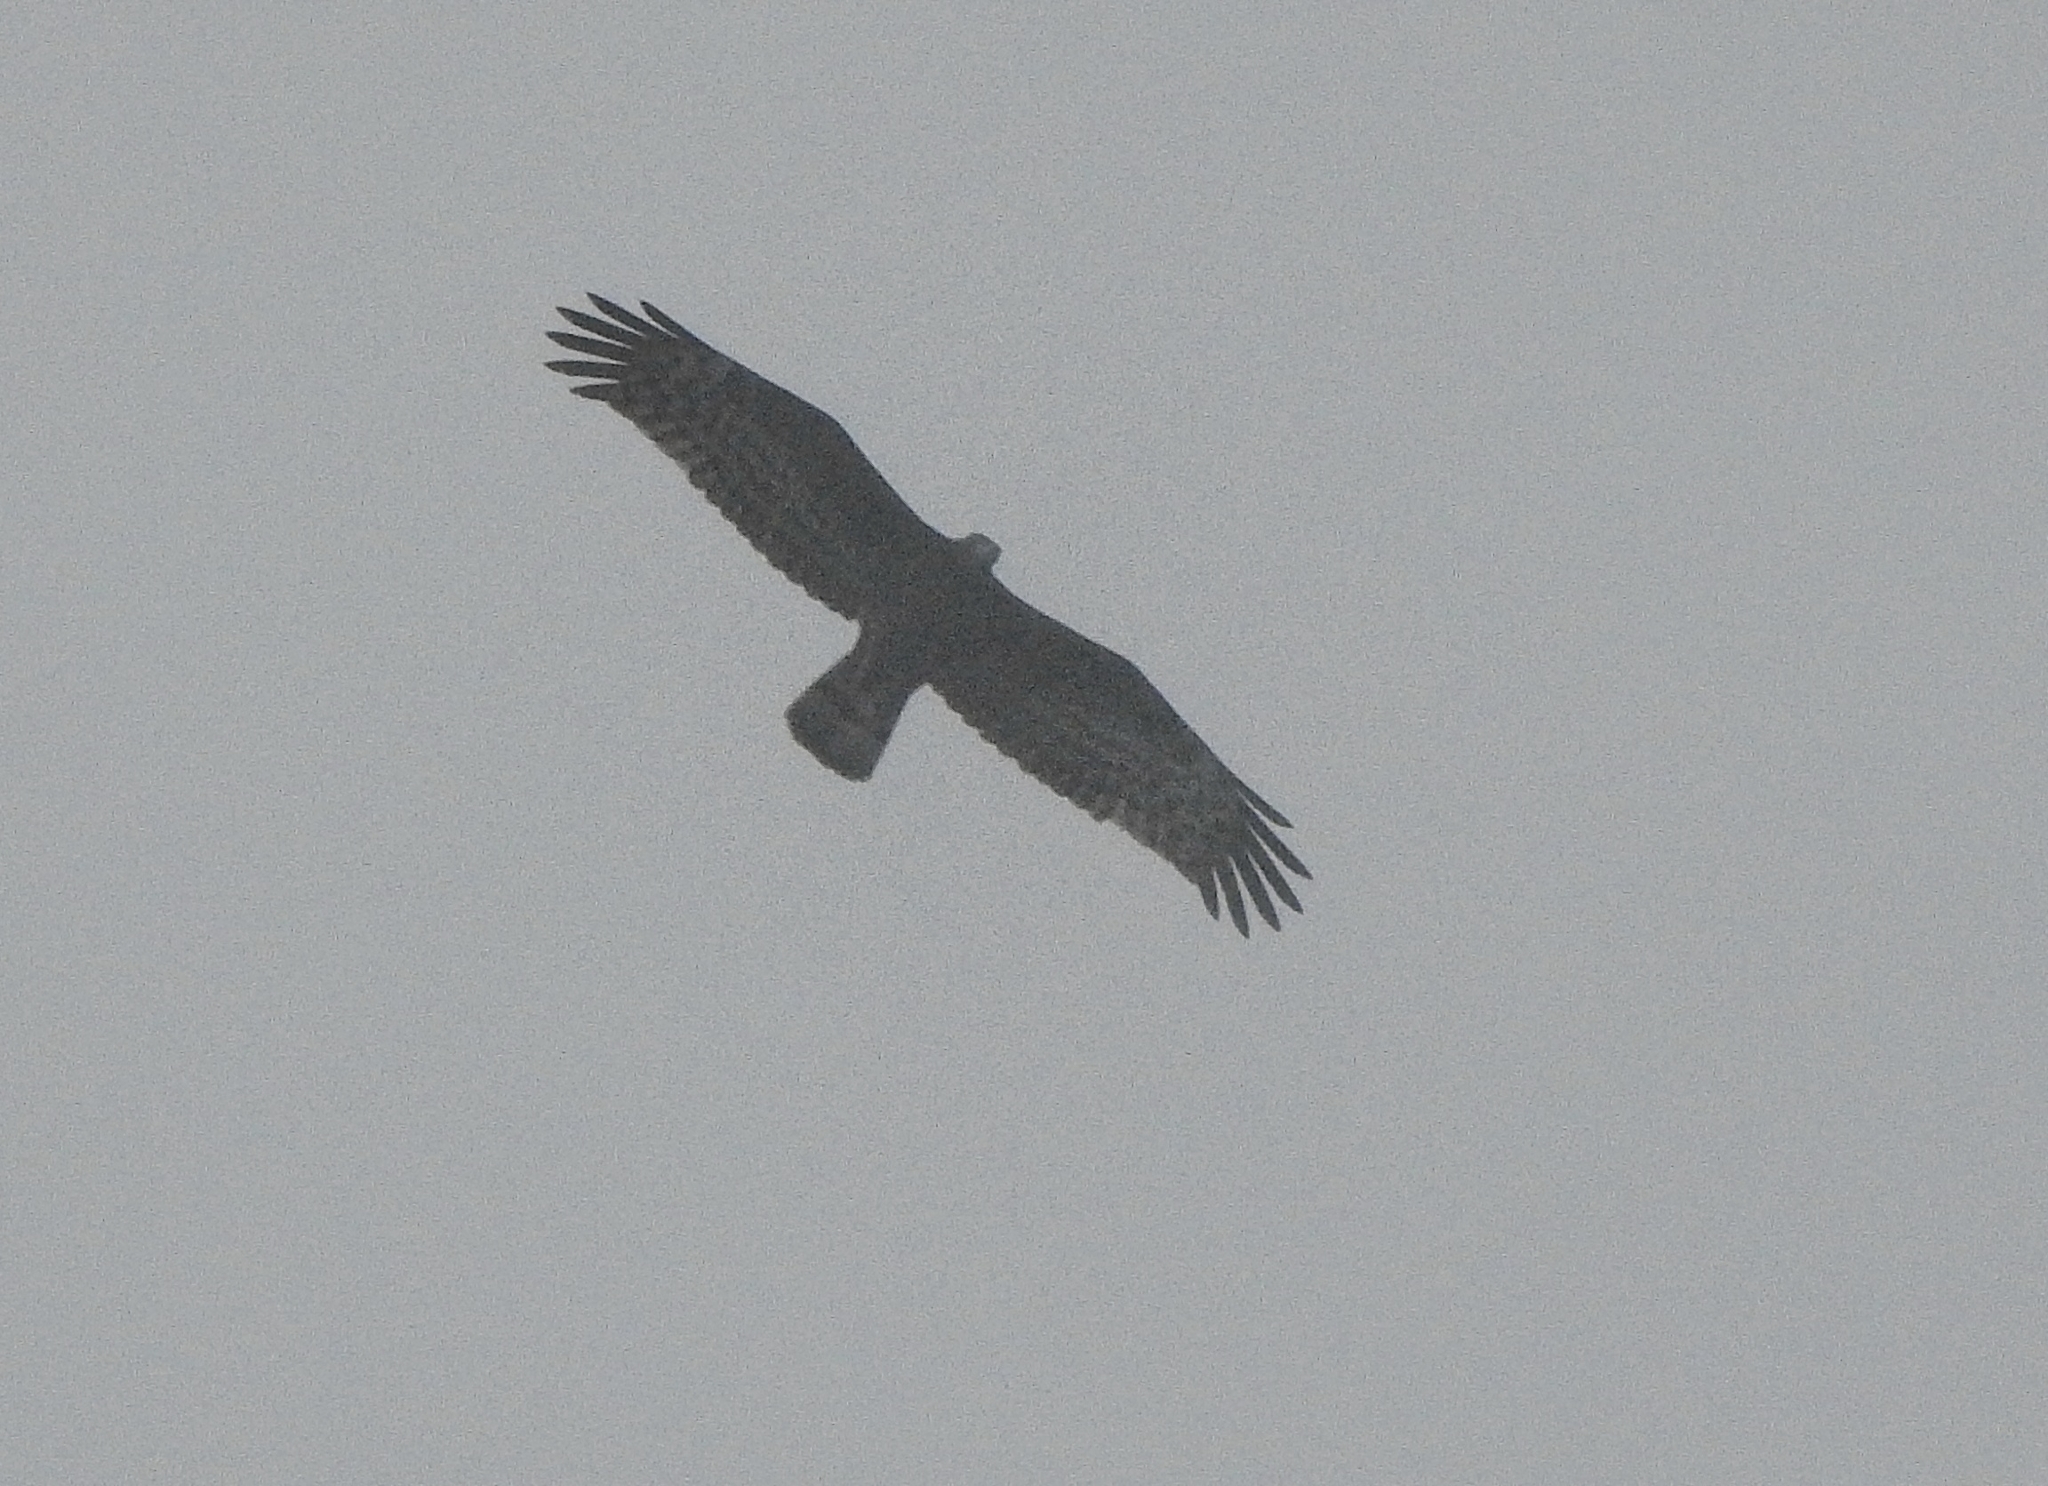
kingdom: Animalia
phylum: Chordata
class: Aves
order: Accipitriformes
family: Accipitridae
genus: Pernis
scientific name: Pernis ptilorhynchus
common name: Crested honey buzzard
